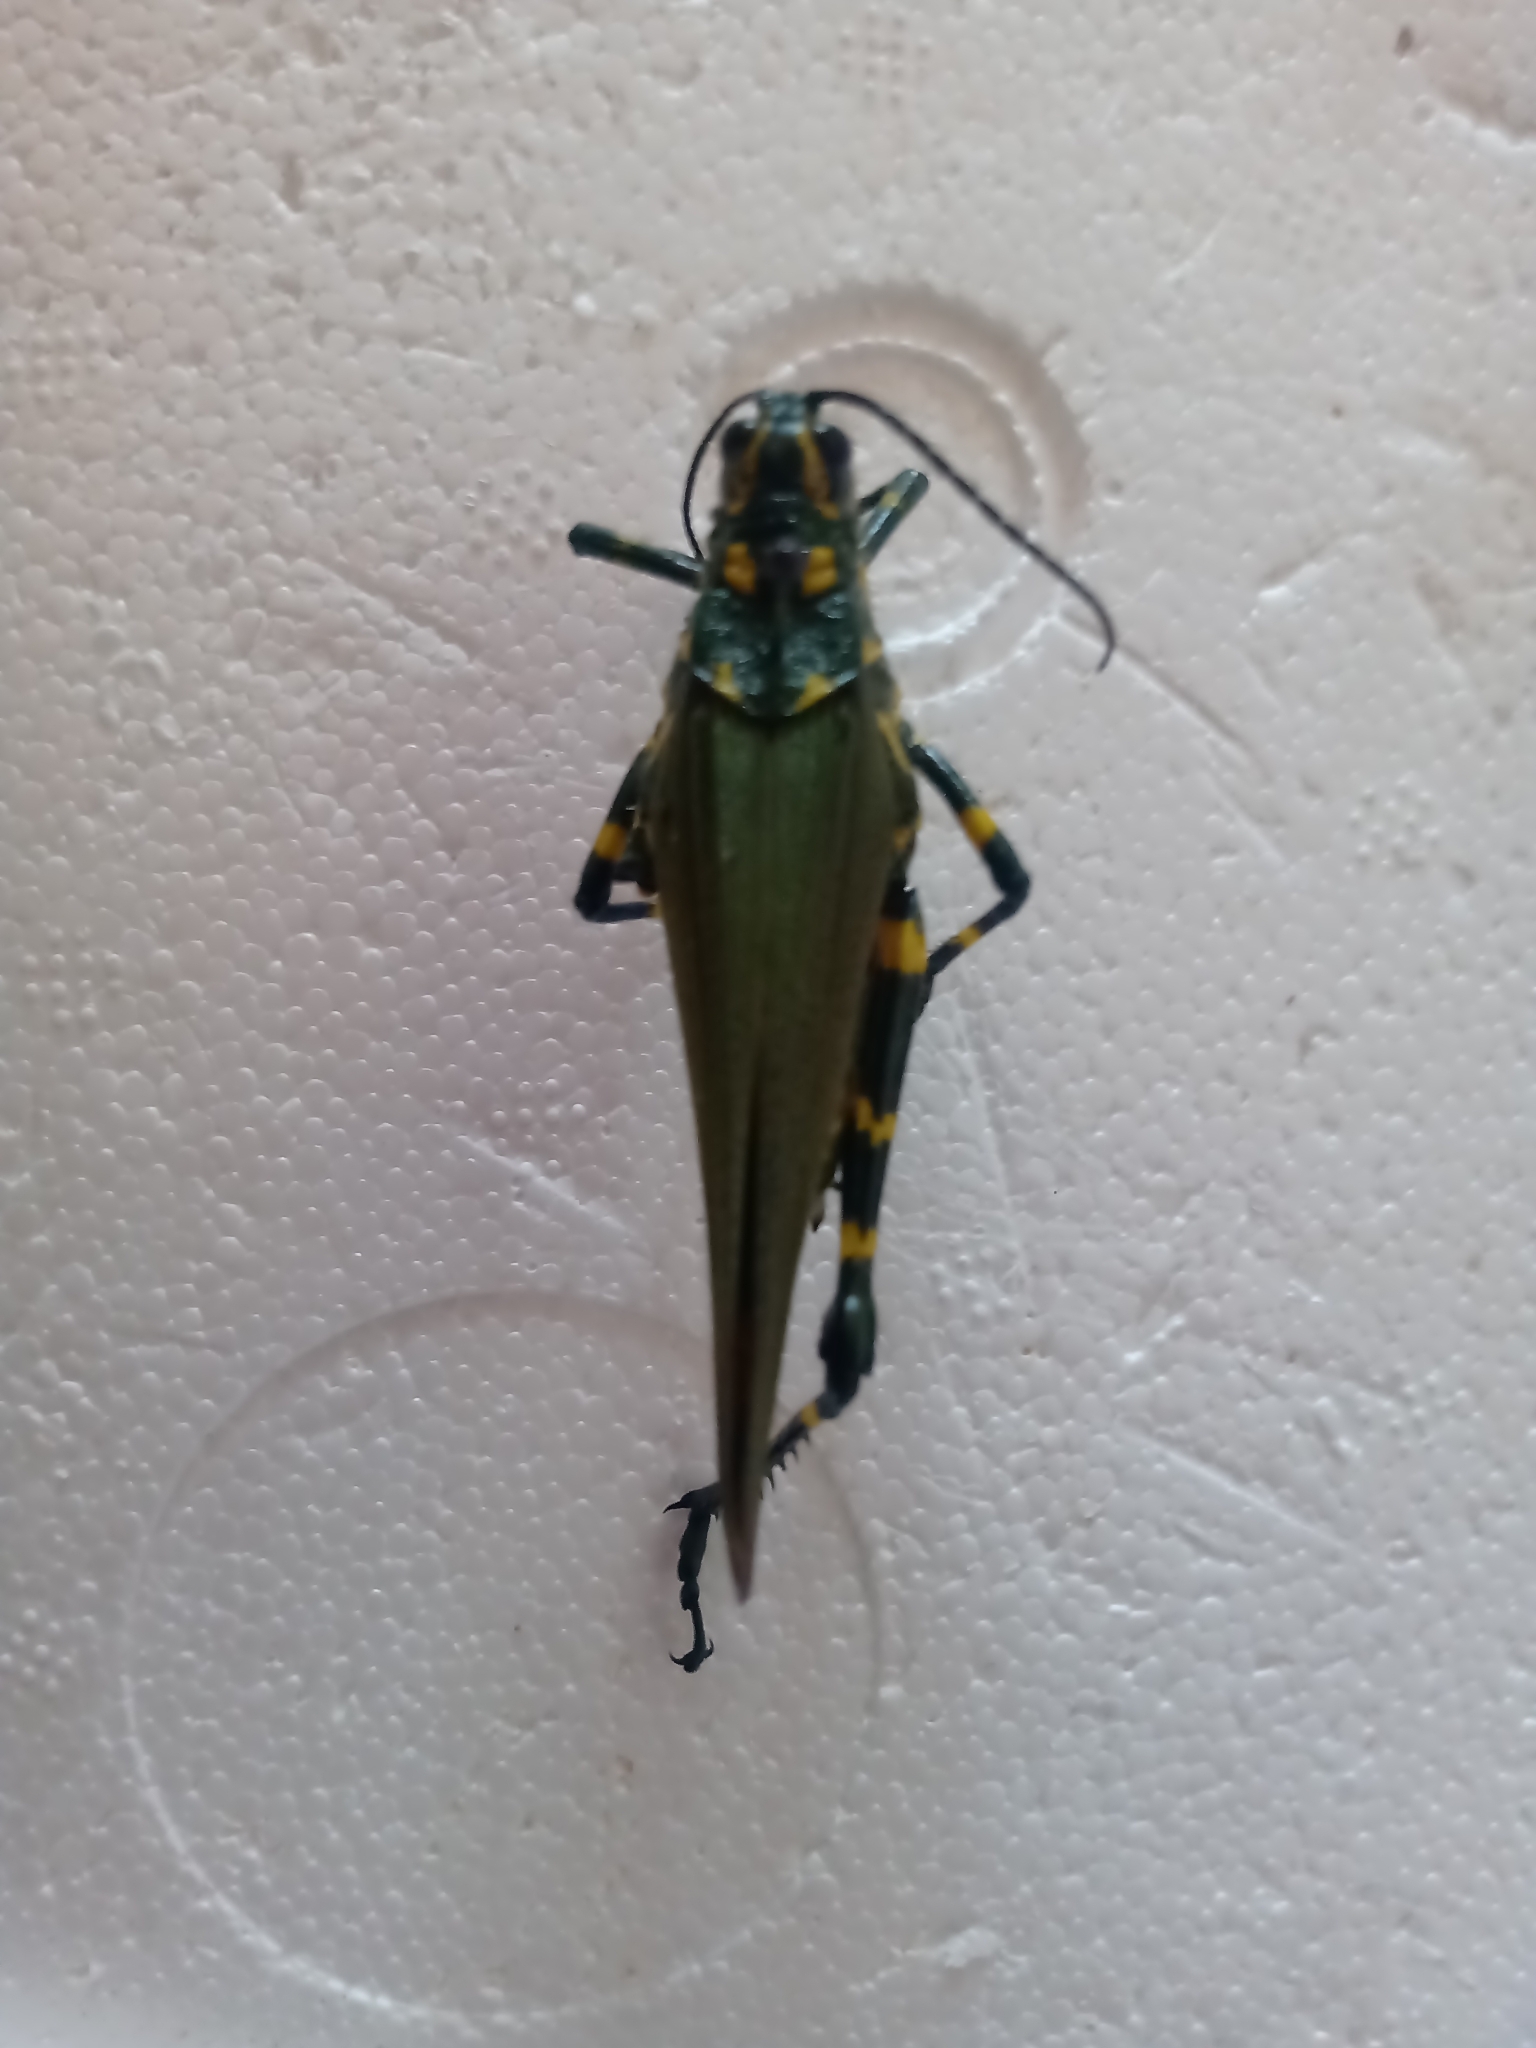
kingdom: Animalia
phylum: Arthropoda
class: Insecta
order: Orthoptera
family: Romaleidae
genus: Chromacris
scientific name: Chromacris speciosa
